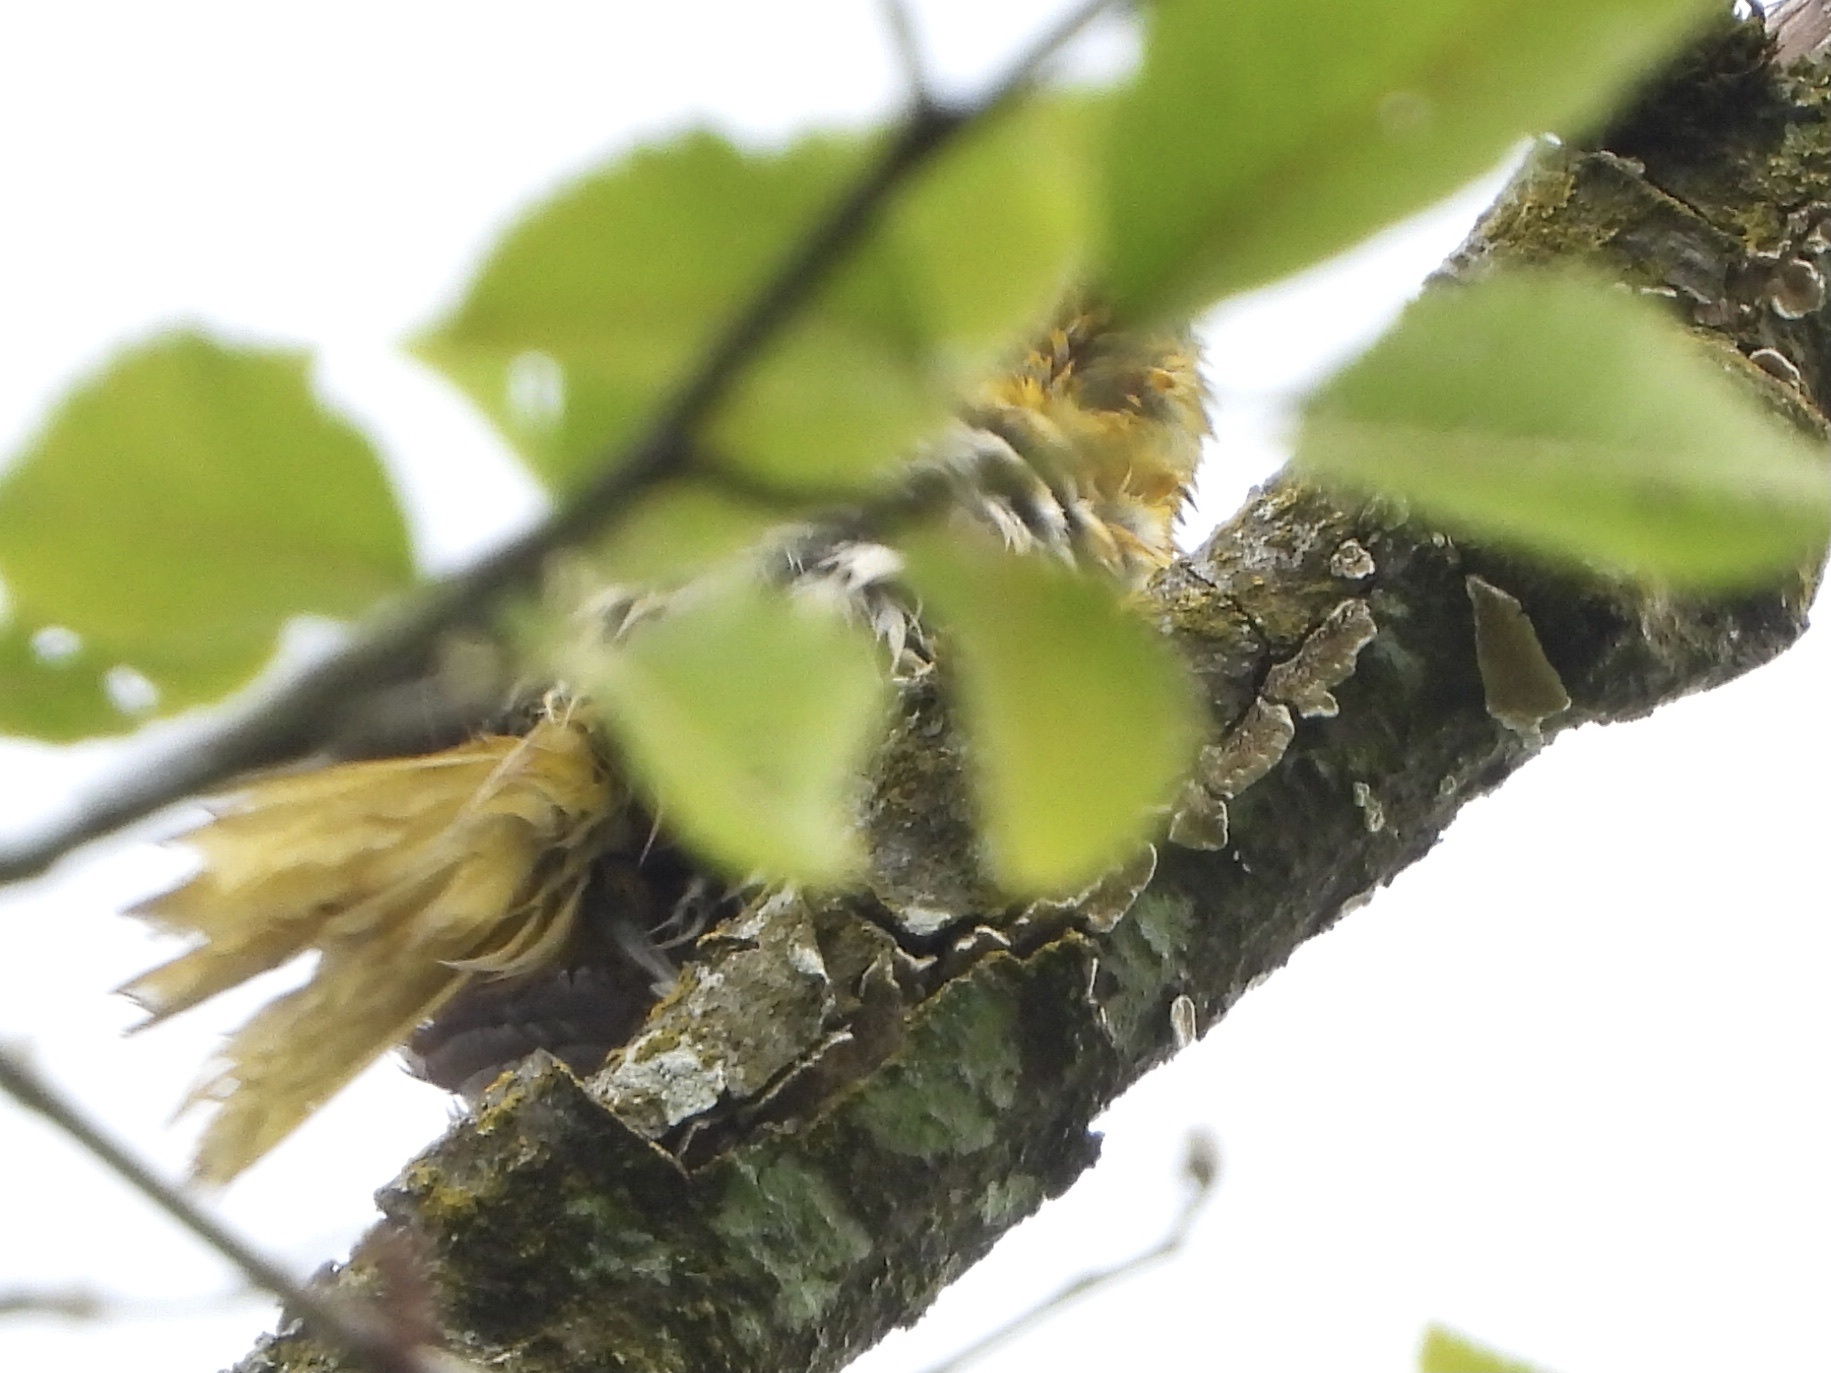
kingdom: Animalia
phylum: Chordata
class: Aves
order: Passeriformes
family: Icteridae
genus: Icterus
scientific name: Icterus bullockii
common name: Bullock's oriole
